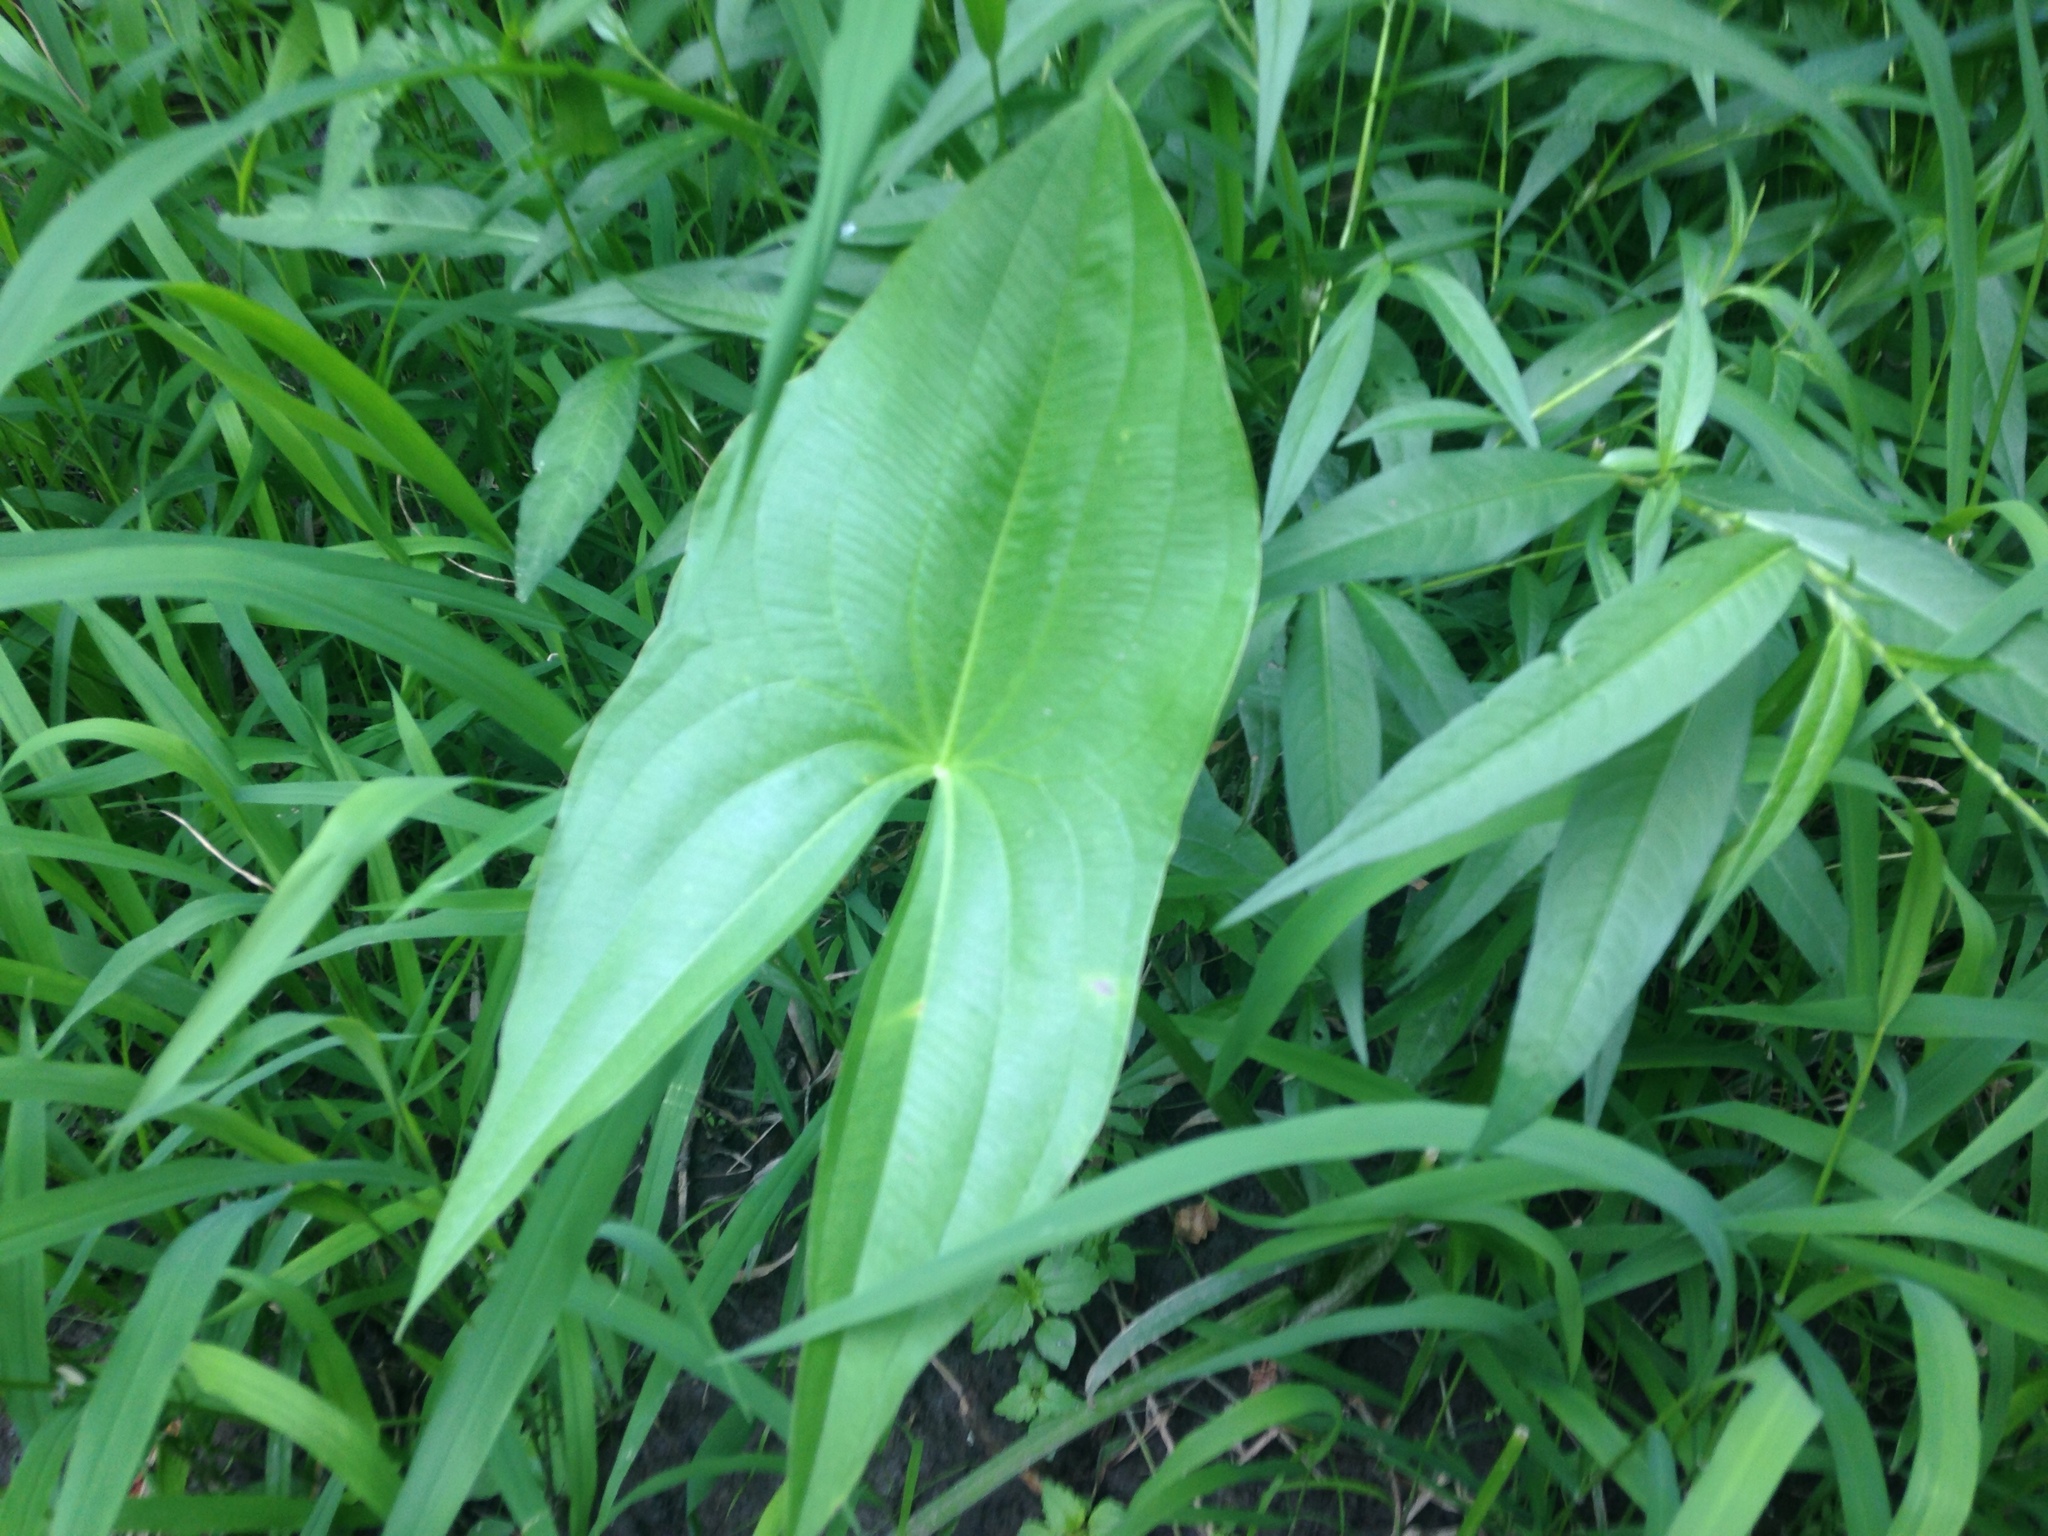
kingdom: Plantae
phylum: Tracheophyta
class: Liliopsida
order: Alismatales
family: Alismataceae
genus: Sagittaria
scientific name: Sagittaria
